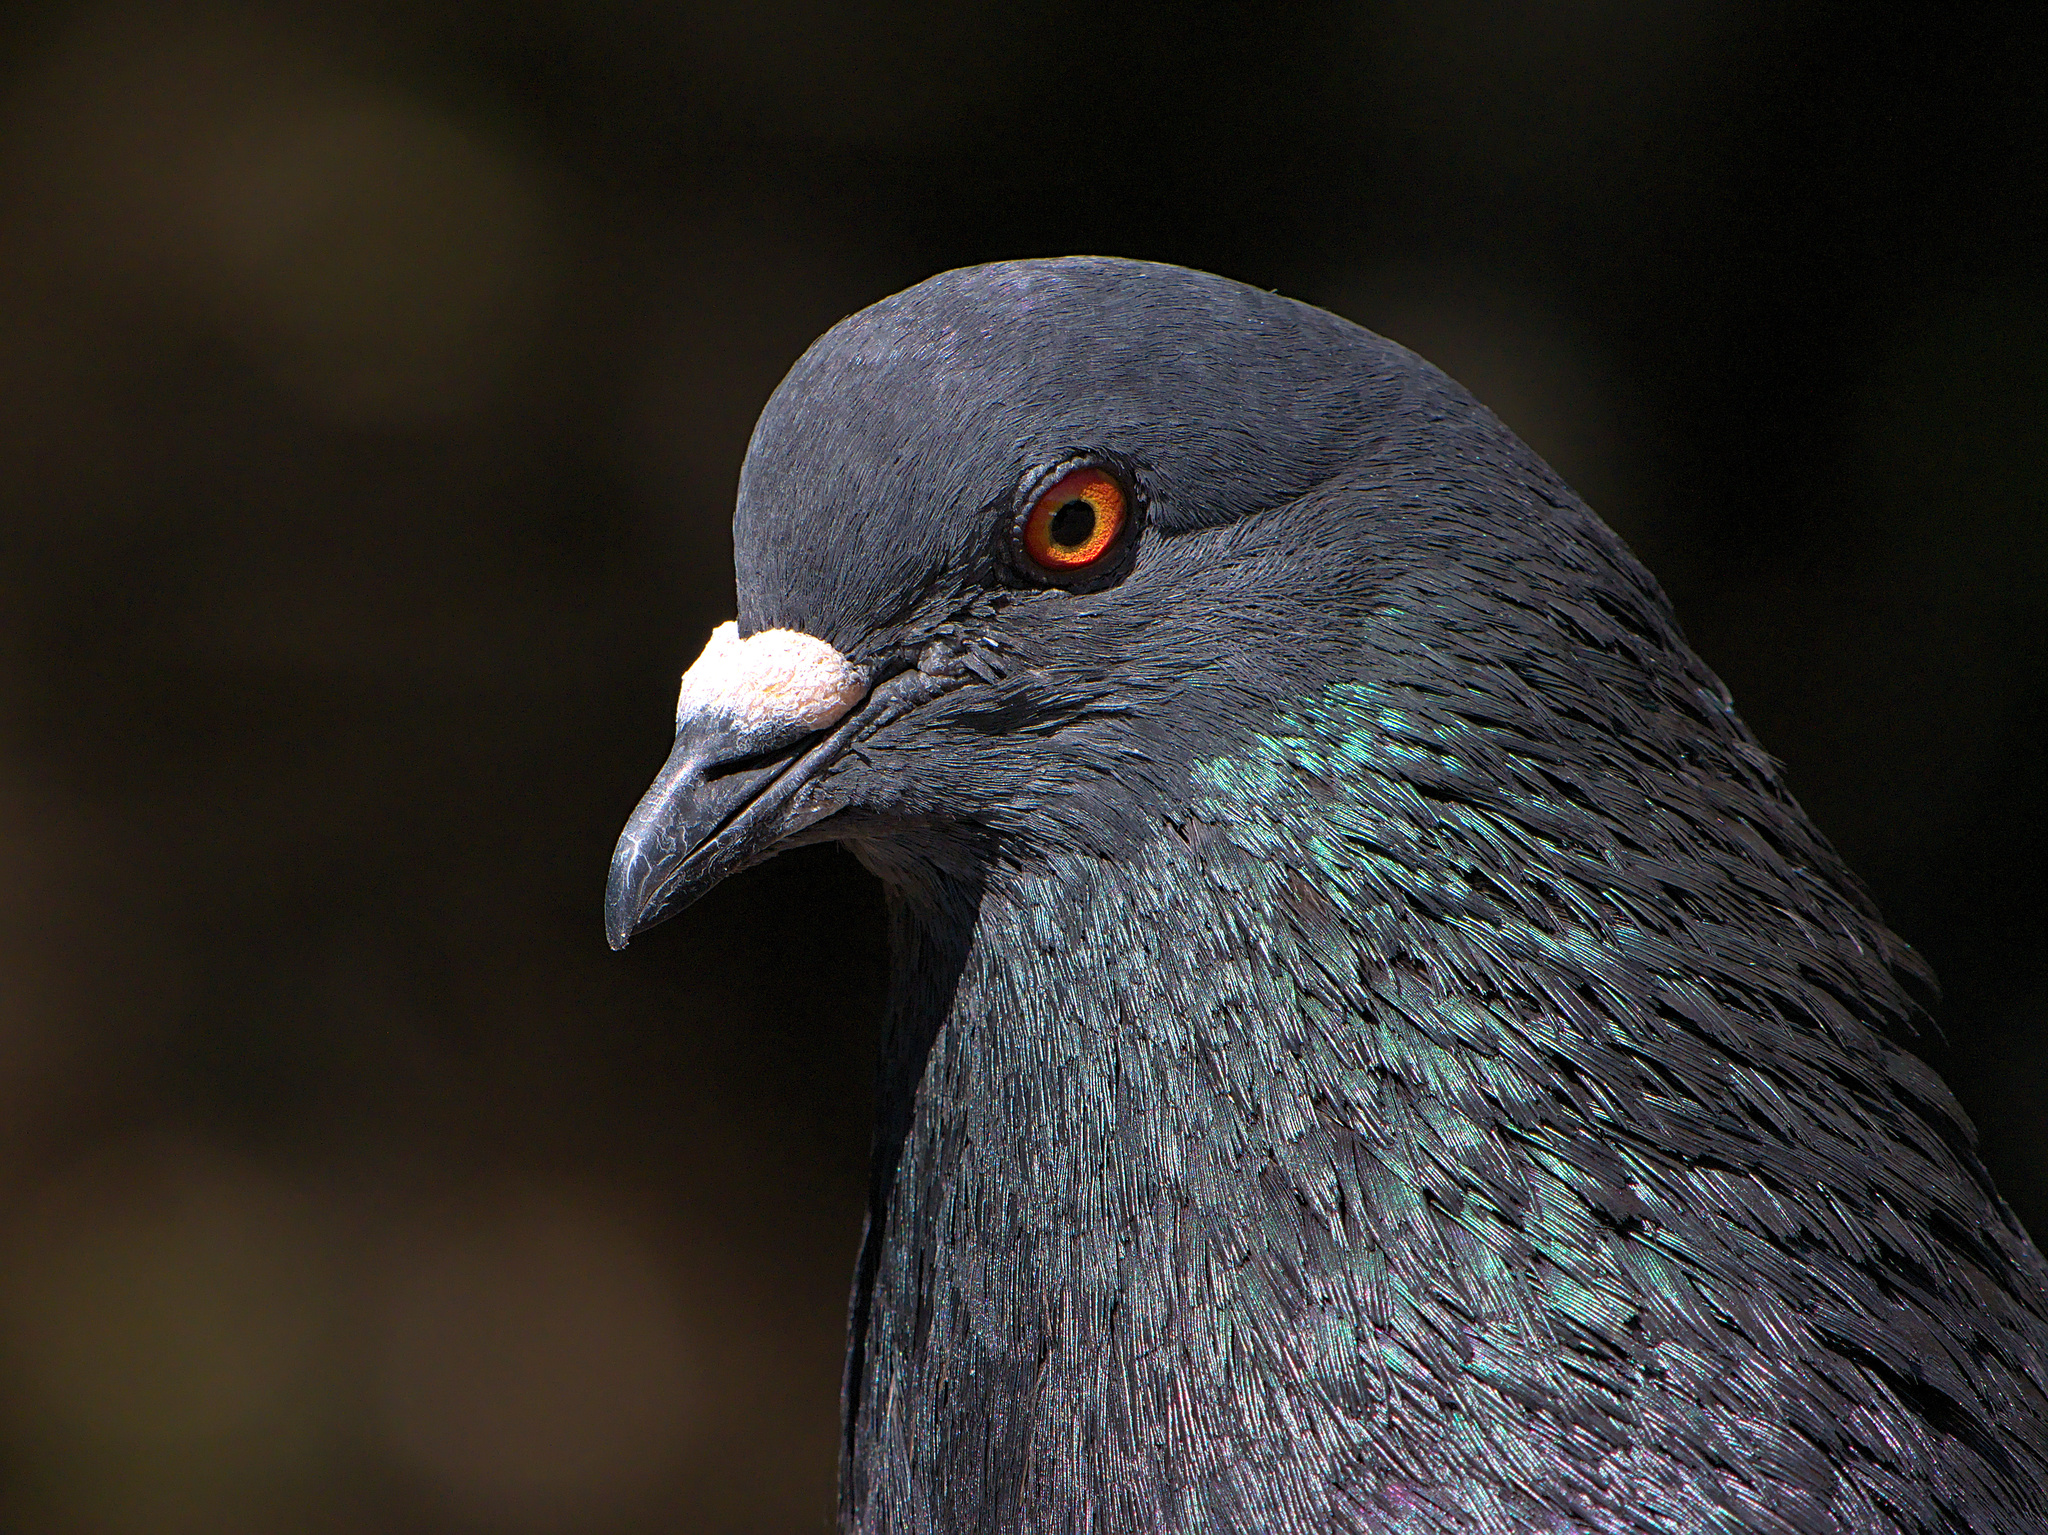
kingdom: Animalia
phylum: Chordata
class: Aves
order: Columbiformes
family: Columbidae
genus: Columba
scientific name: Columba livia
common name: Rock pigeon
